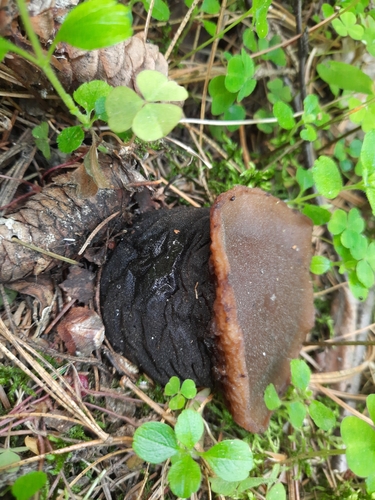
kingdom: Fungi
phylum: Ascomycota
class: Pezizomycetes
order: Pezizales
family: Sarcosomataceae
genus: Sarcosoma
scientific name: Sarcosoma globosum
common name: Charred-pancake cup
